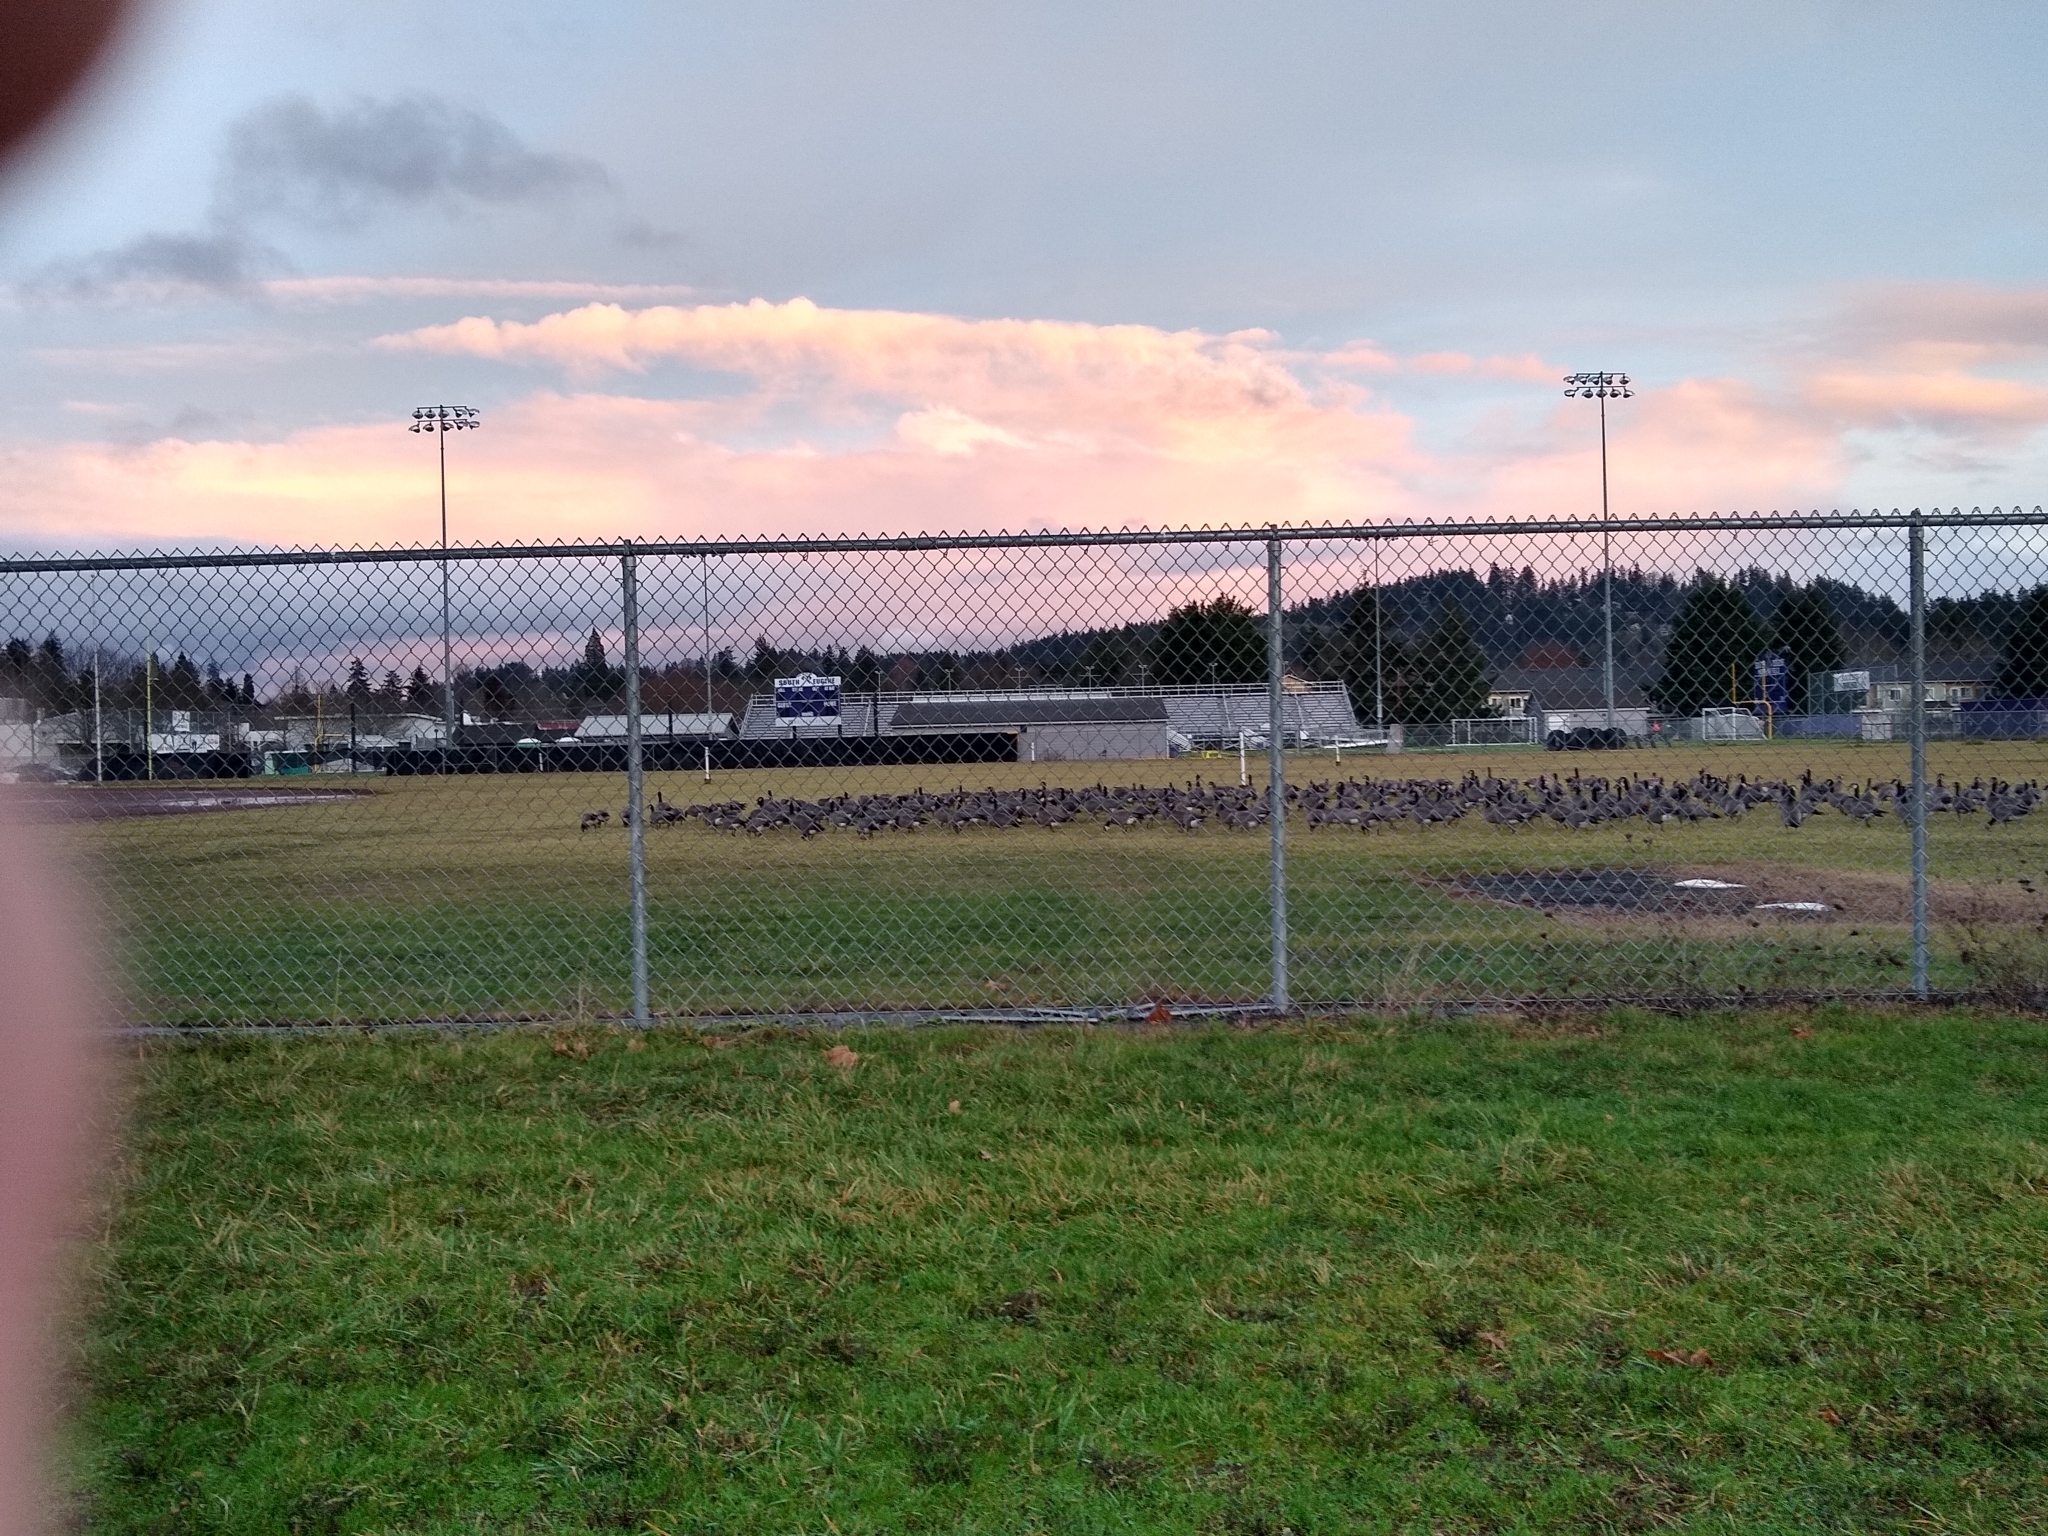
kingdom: Animalia
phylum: Chordata
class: Aves
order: Anseriformes
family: Anatidae
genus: Branta
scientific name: Branta hutchinsii
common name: Cackling goose
